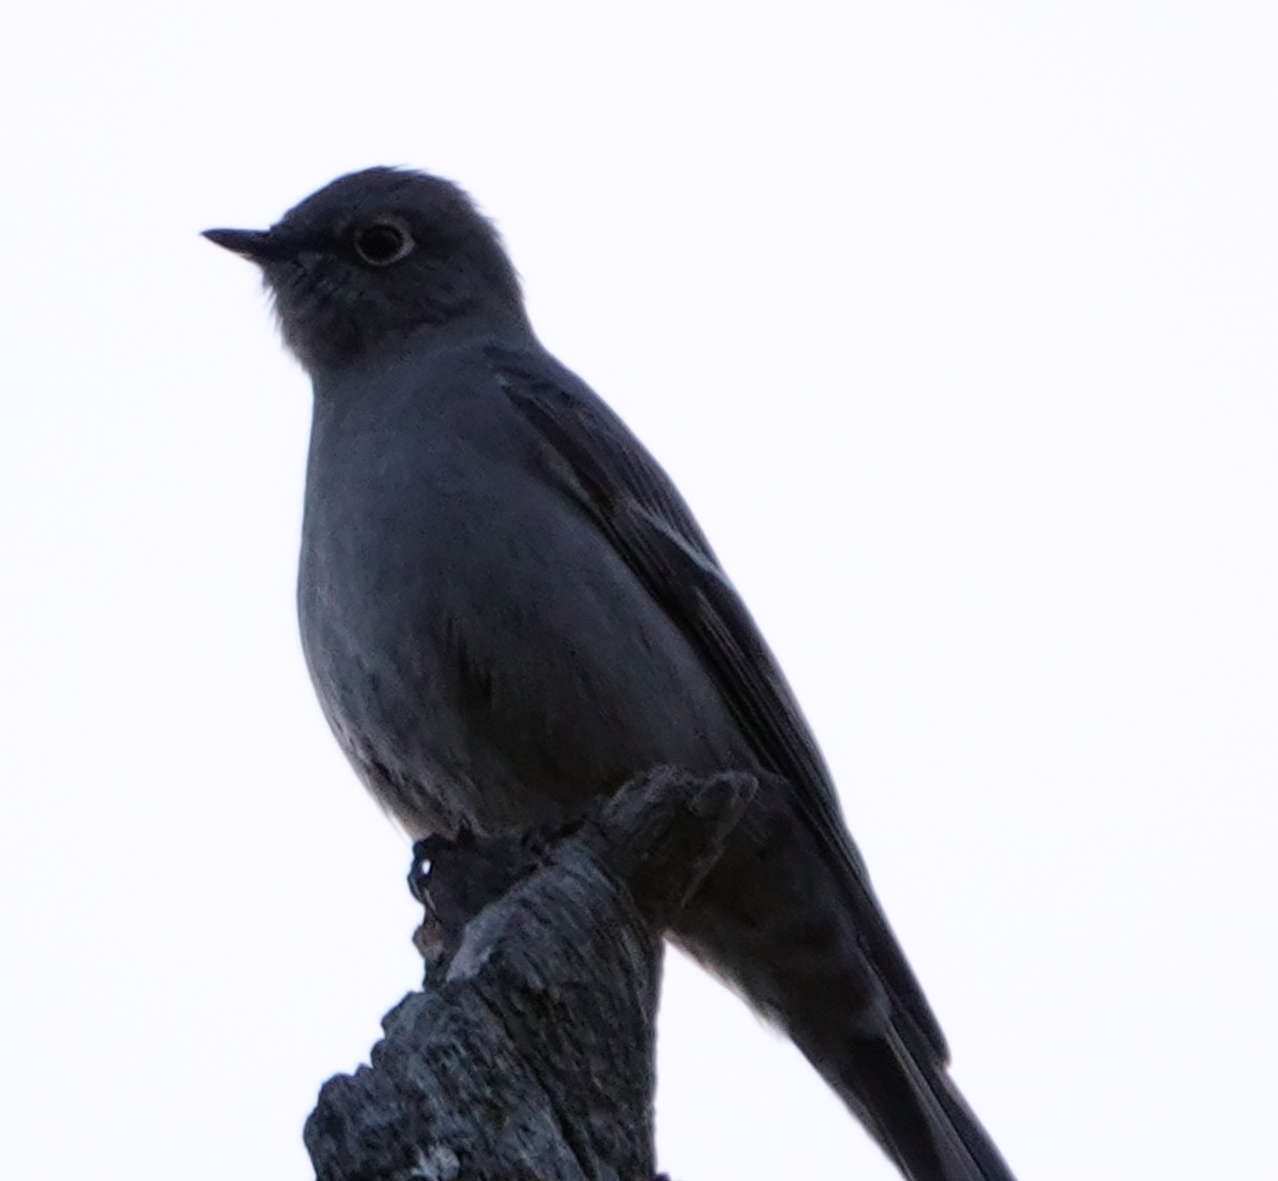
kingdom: Animalia
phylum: Chordata
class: Aves
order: Passeriformes
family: Turdidae
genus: Myadestes
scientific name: Myadestes townsendi
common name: Townsend's solitaire
